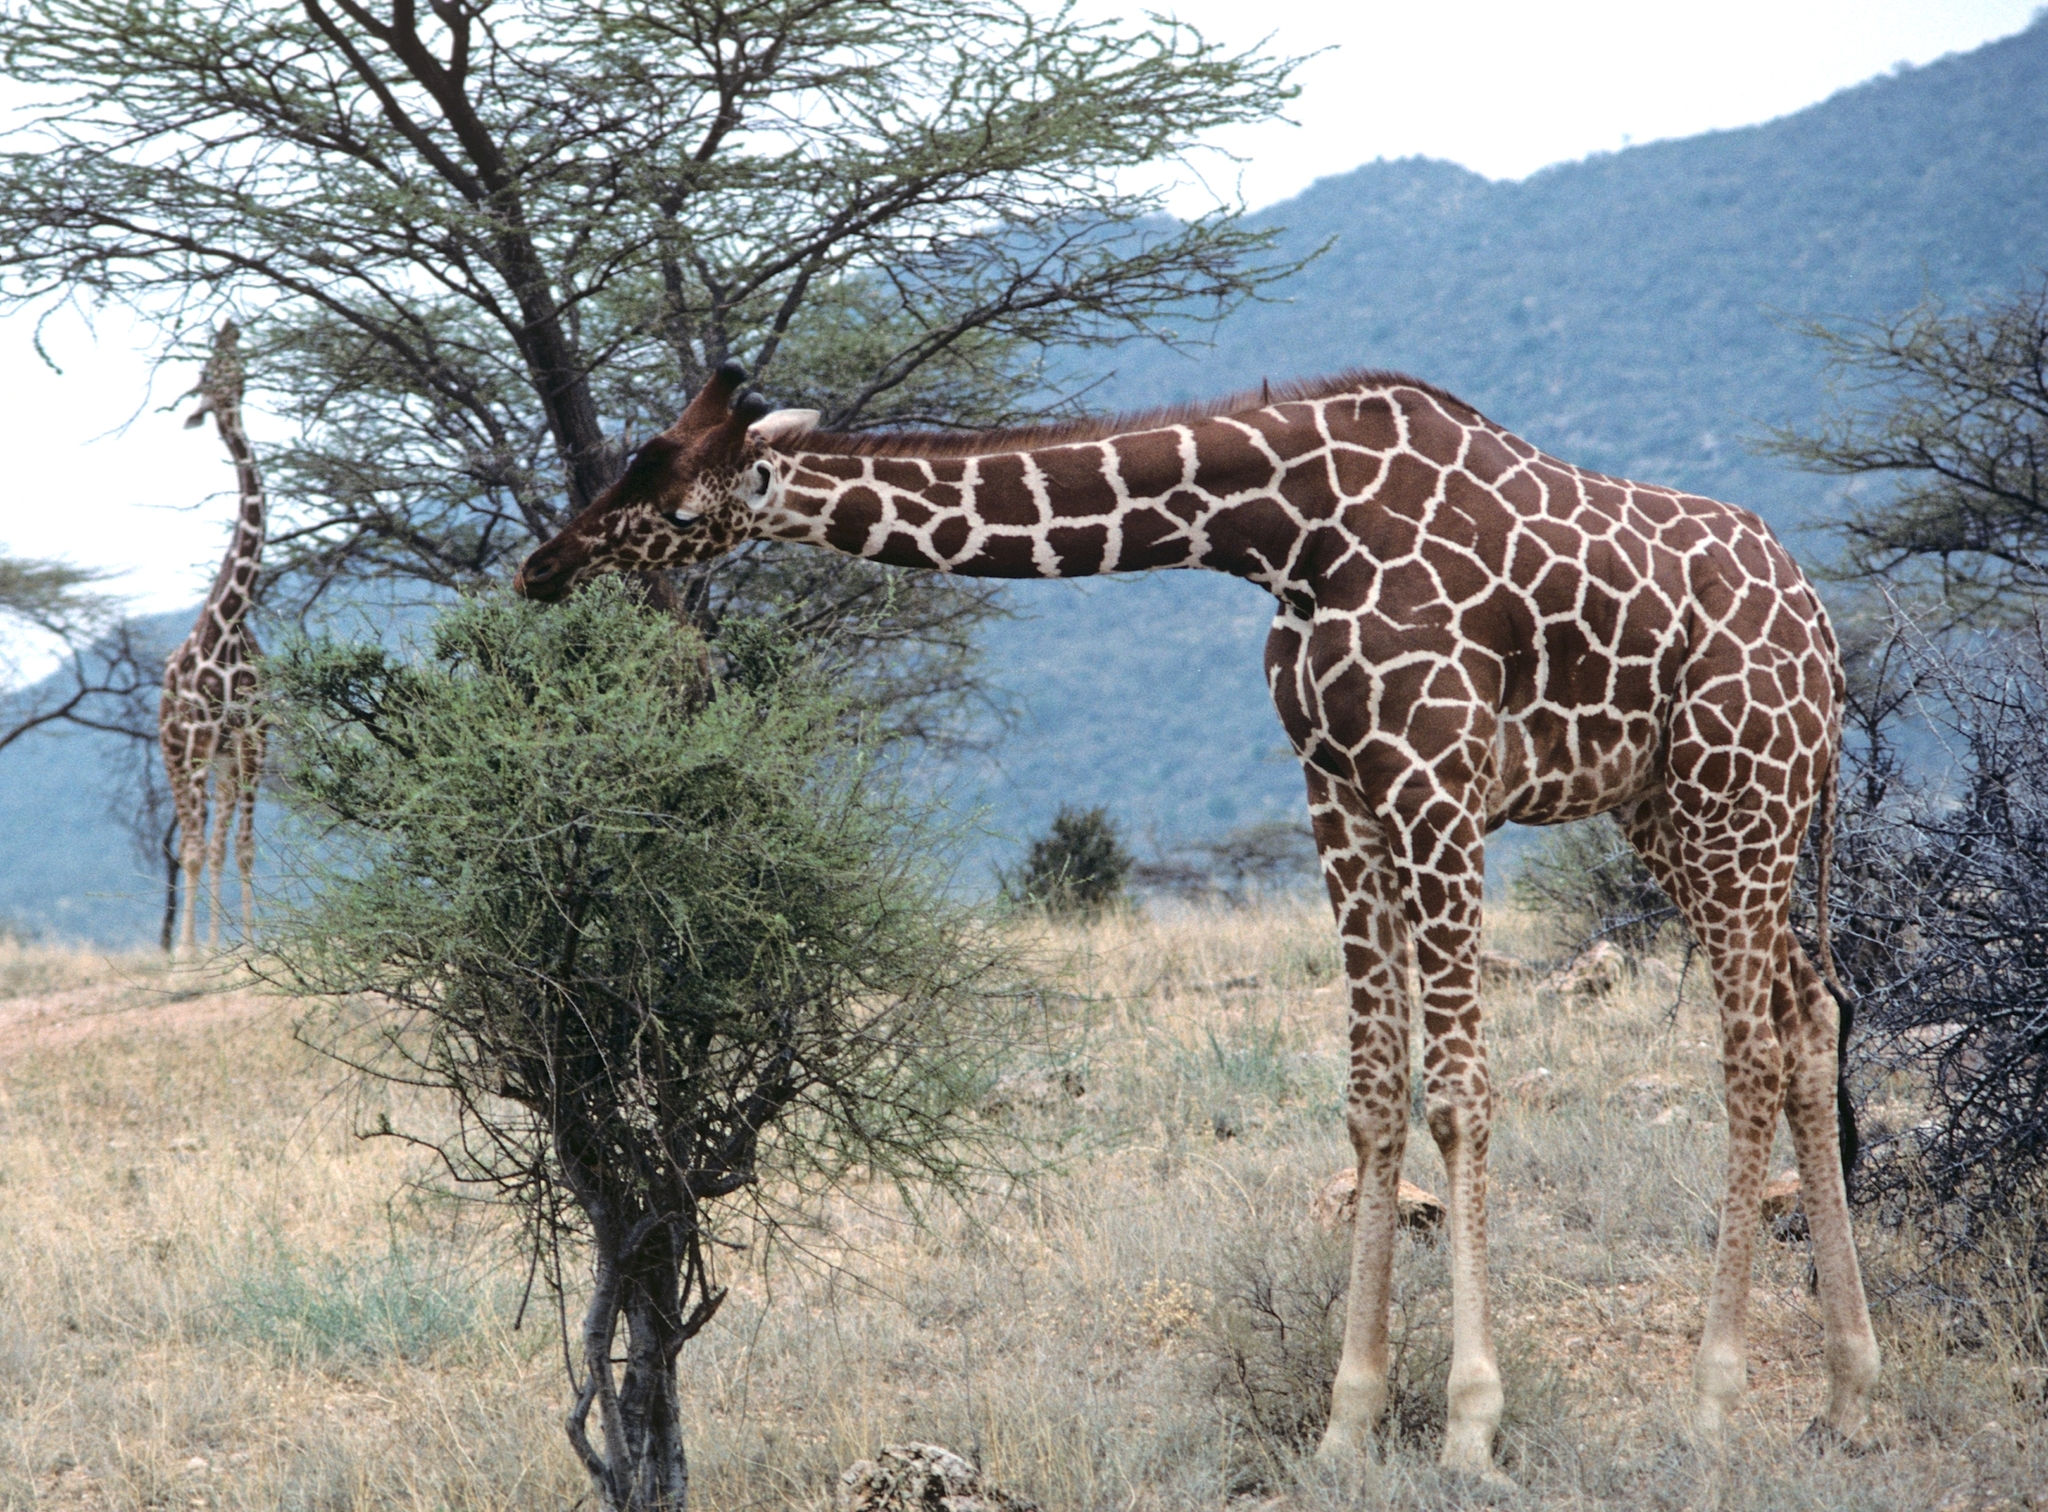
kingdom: Animalia
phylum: Chordata
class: Mammalia
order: Artiodactyla
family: Giraffidae
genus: Giraffa
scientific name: Giraffa reticulata
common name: Reticulated giraffe
